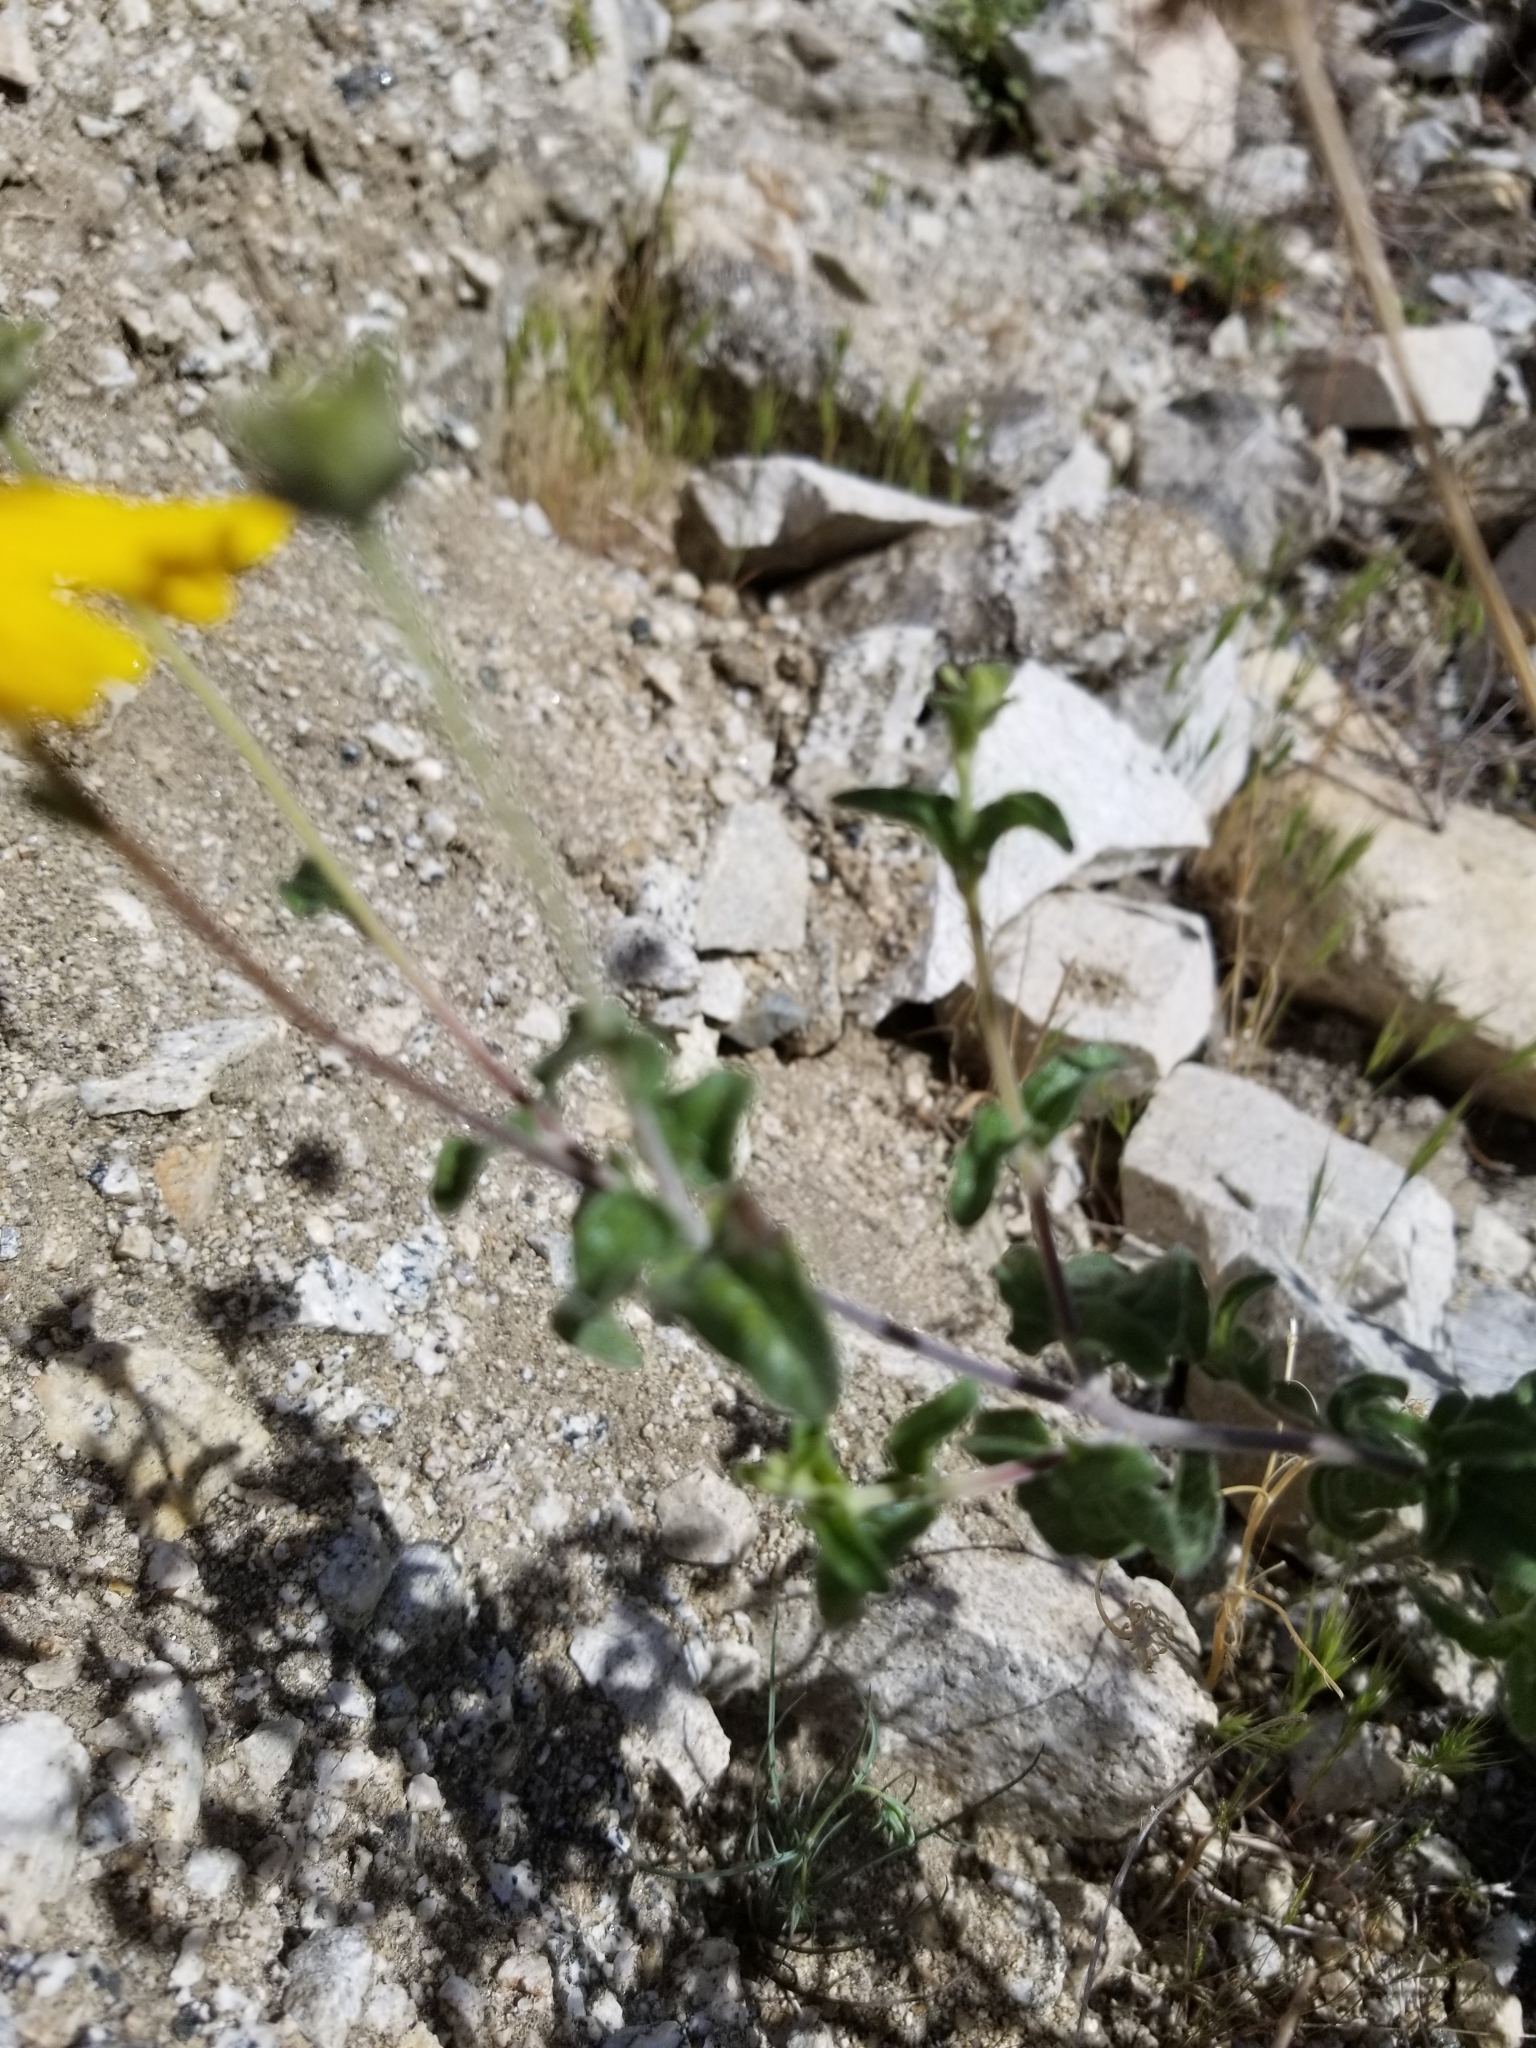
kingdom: Plantae
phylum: Tracheophyta
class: Magnoliopsida
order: Asterales
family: Asteraceae
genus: Bahiopsis
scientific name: Bahiopsis parishii
